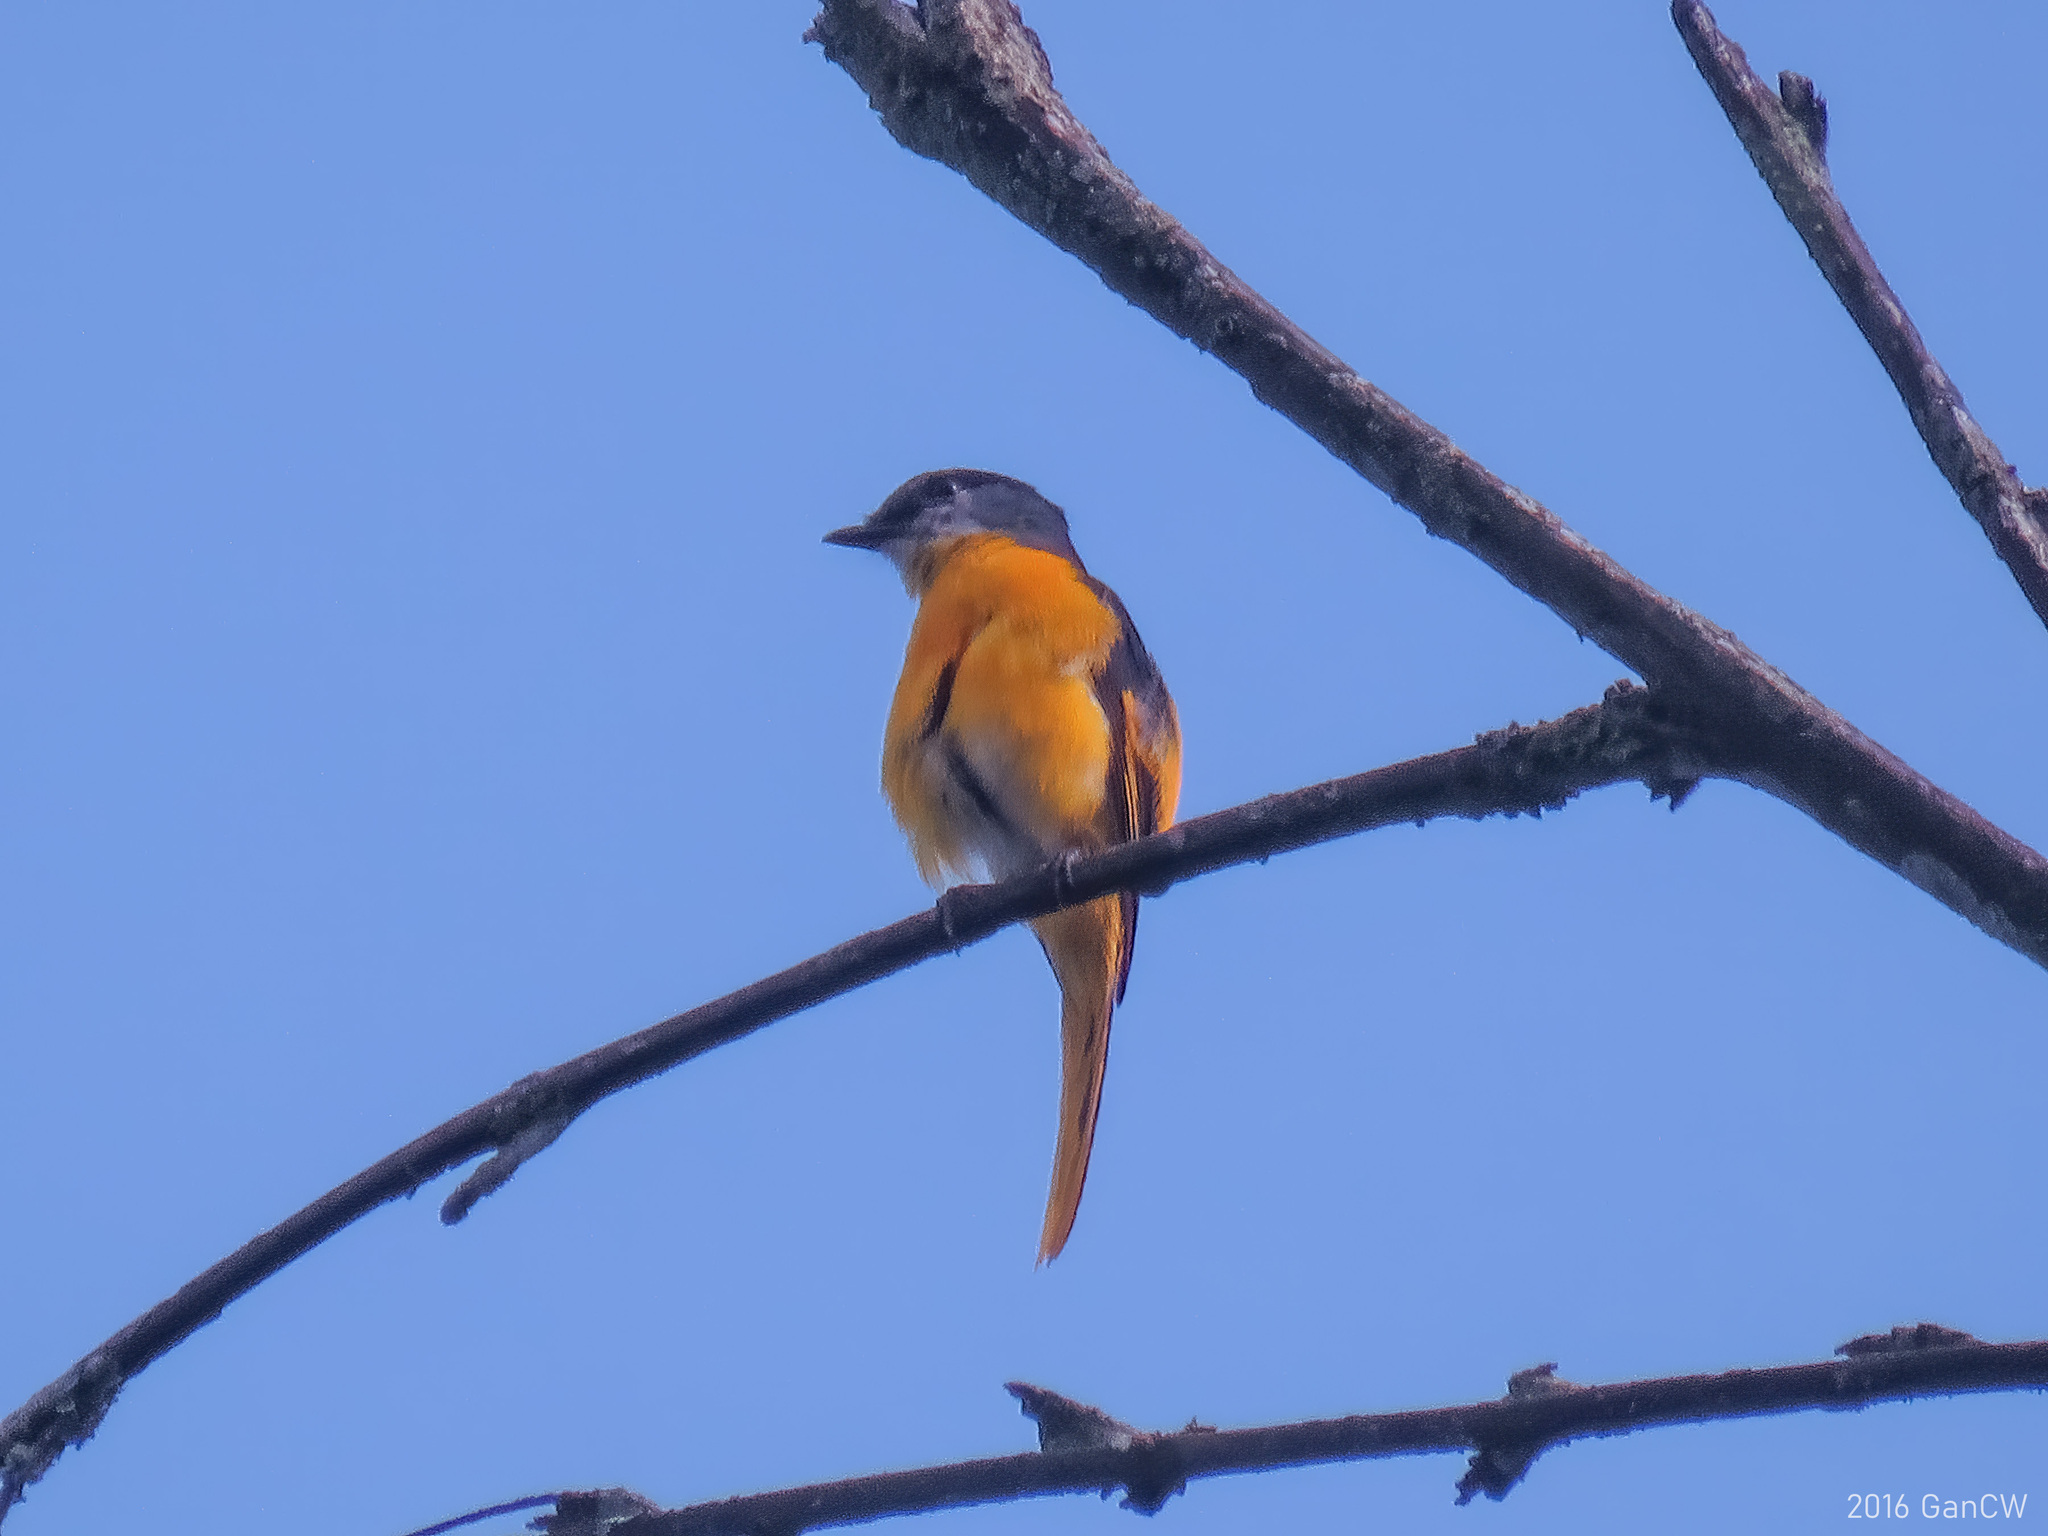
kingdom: Animalia
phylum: Chordata
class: Aves
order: Passeriformes
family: Campephagidae
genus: Pericrocotus
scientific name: Pericrocotus solaris
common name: Grey-chinned minivet
